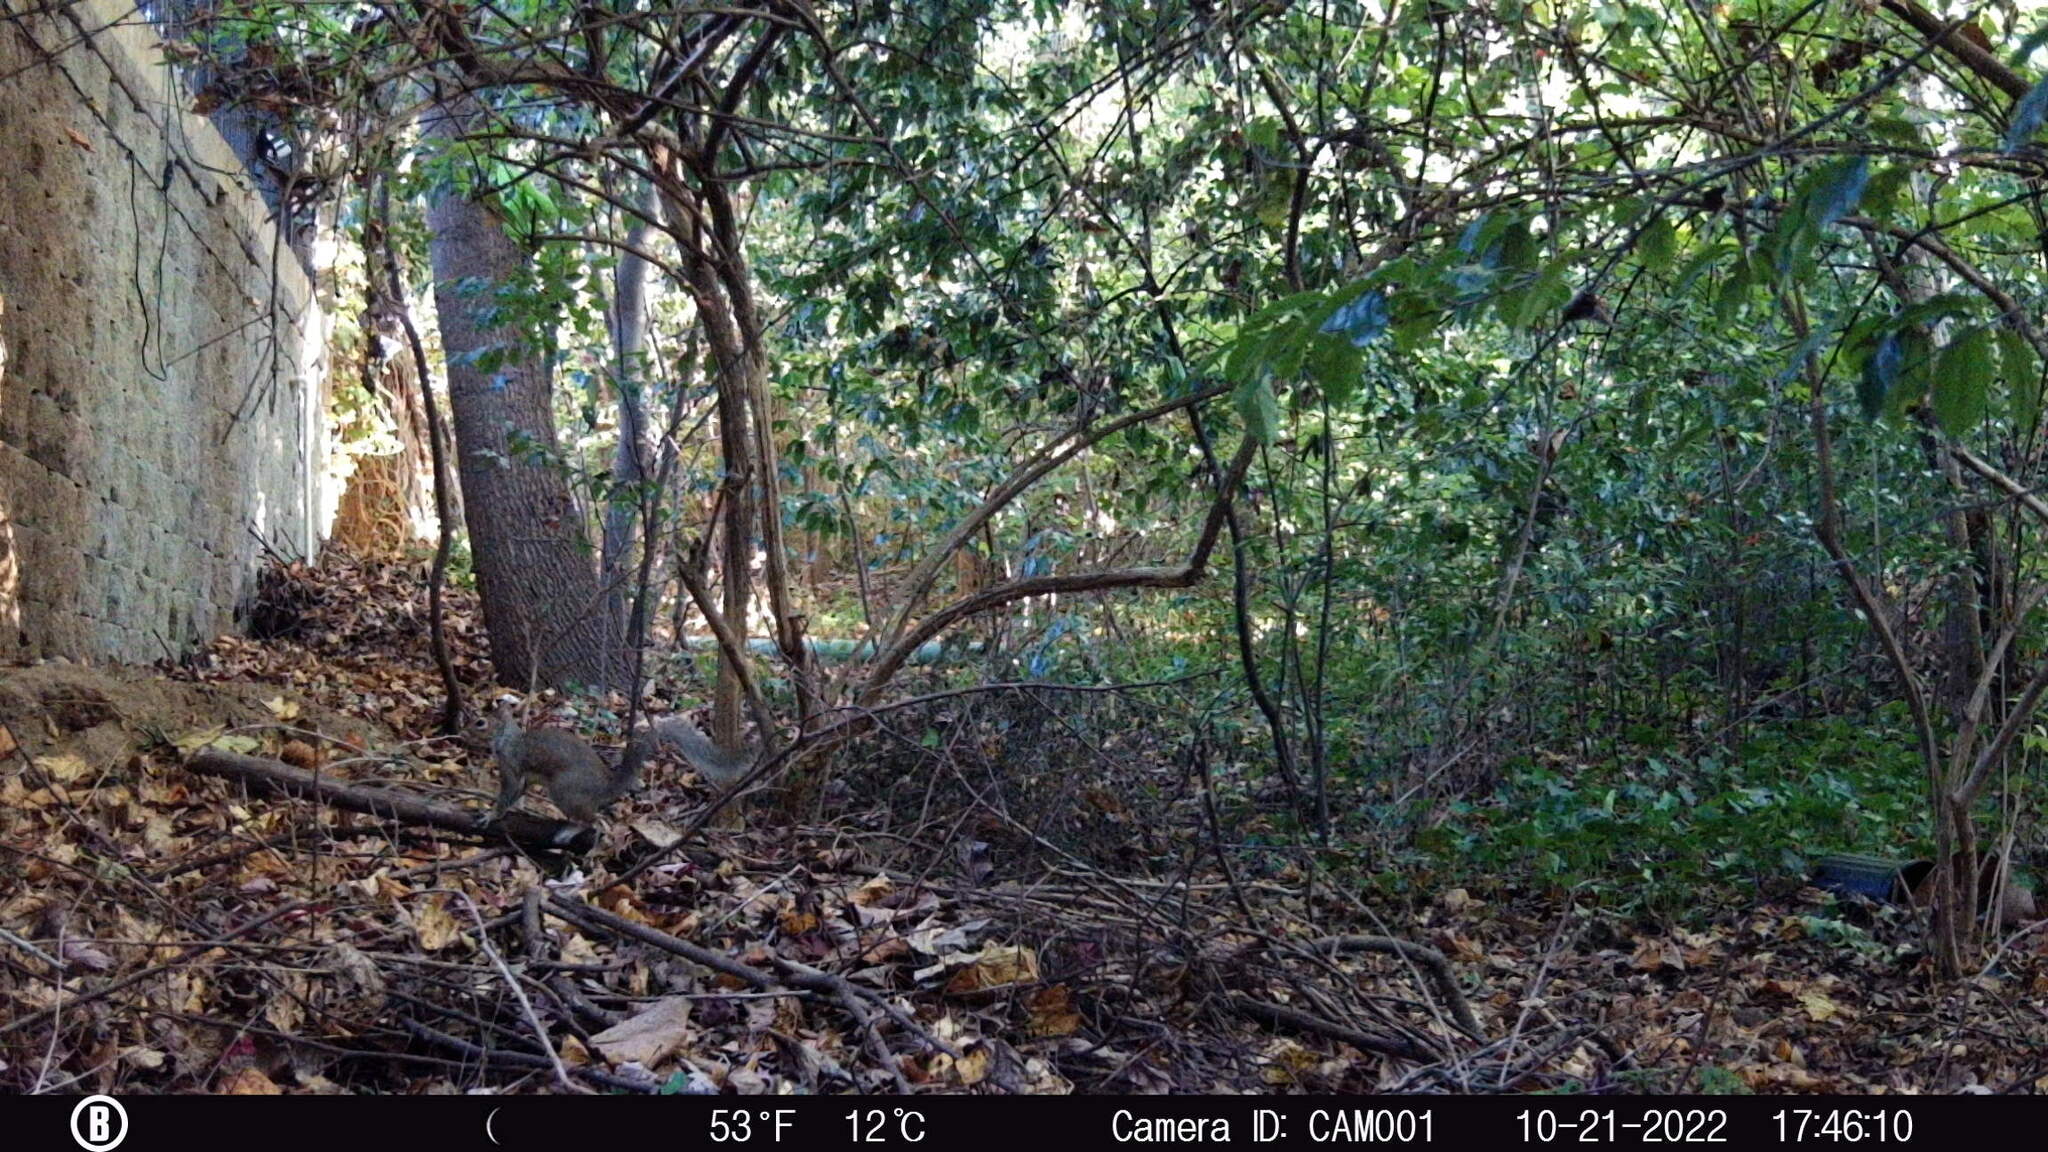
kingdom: Animalia
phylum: Chordata
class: Mammalia
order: Rodentia
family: Sciuridae
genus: Sciurus
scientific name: Sciurus carolinensis
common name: Eastern gray squirrel
